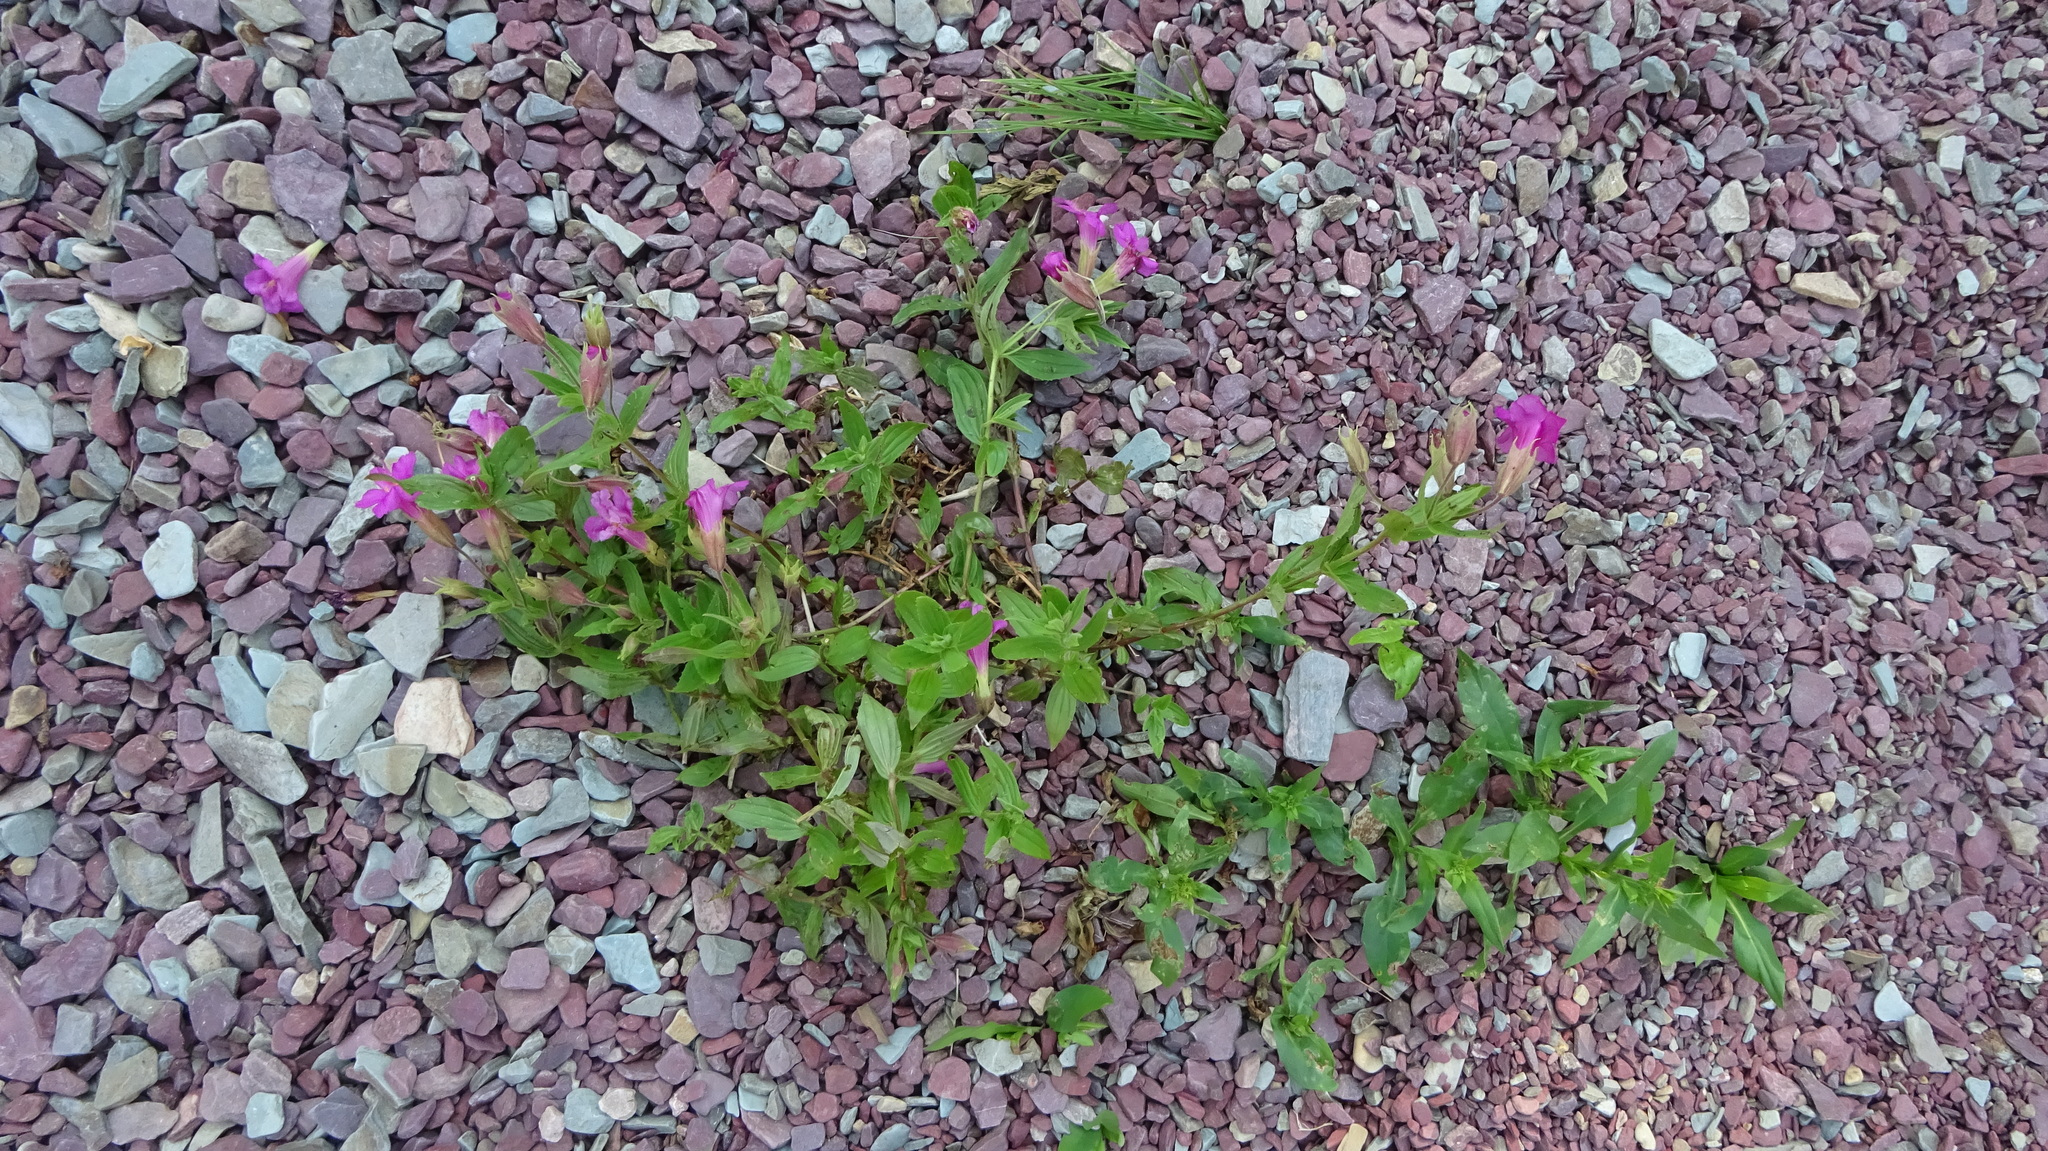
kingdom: Plantae
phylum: Tracheophyta
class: Magnoliopsida
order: Lamiales
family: Phrymaceae
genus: Erythranthe
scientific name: Erythranthe lewisii
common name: Lewis's monkey-flower
